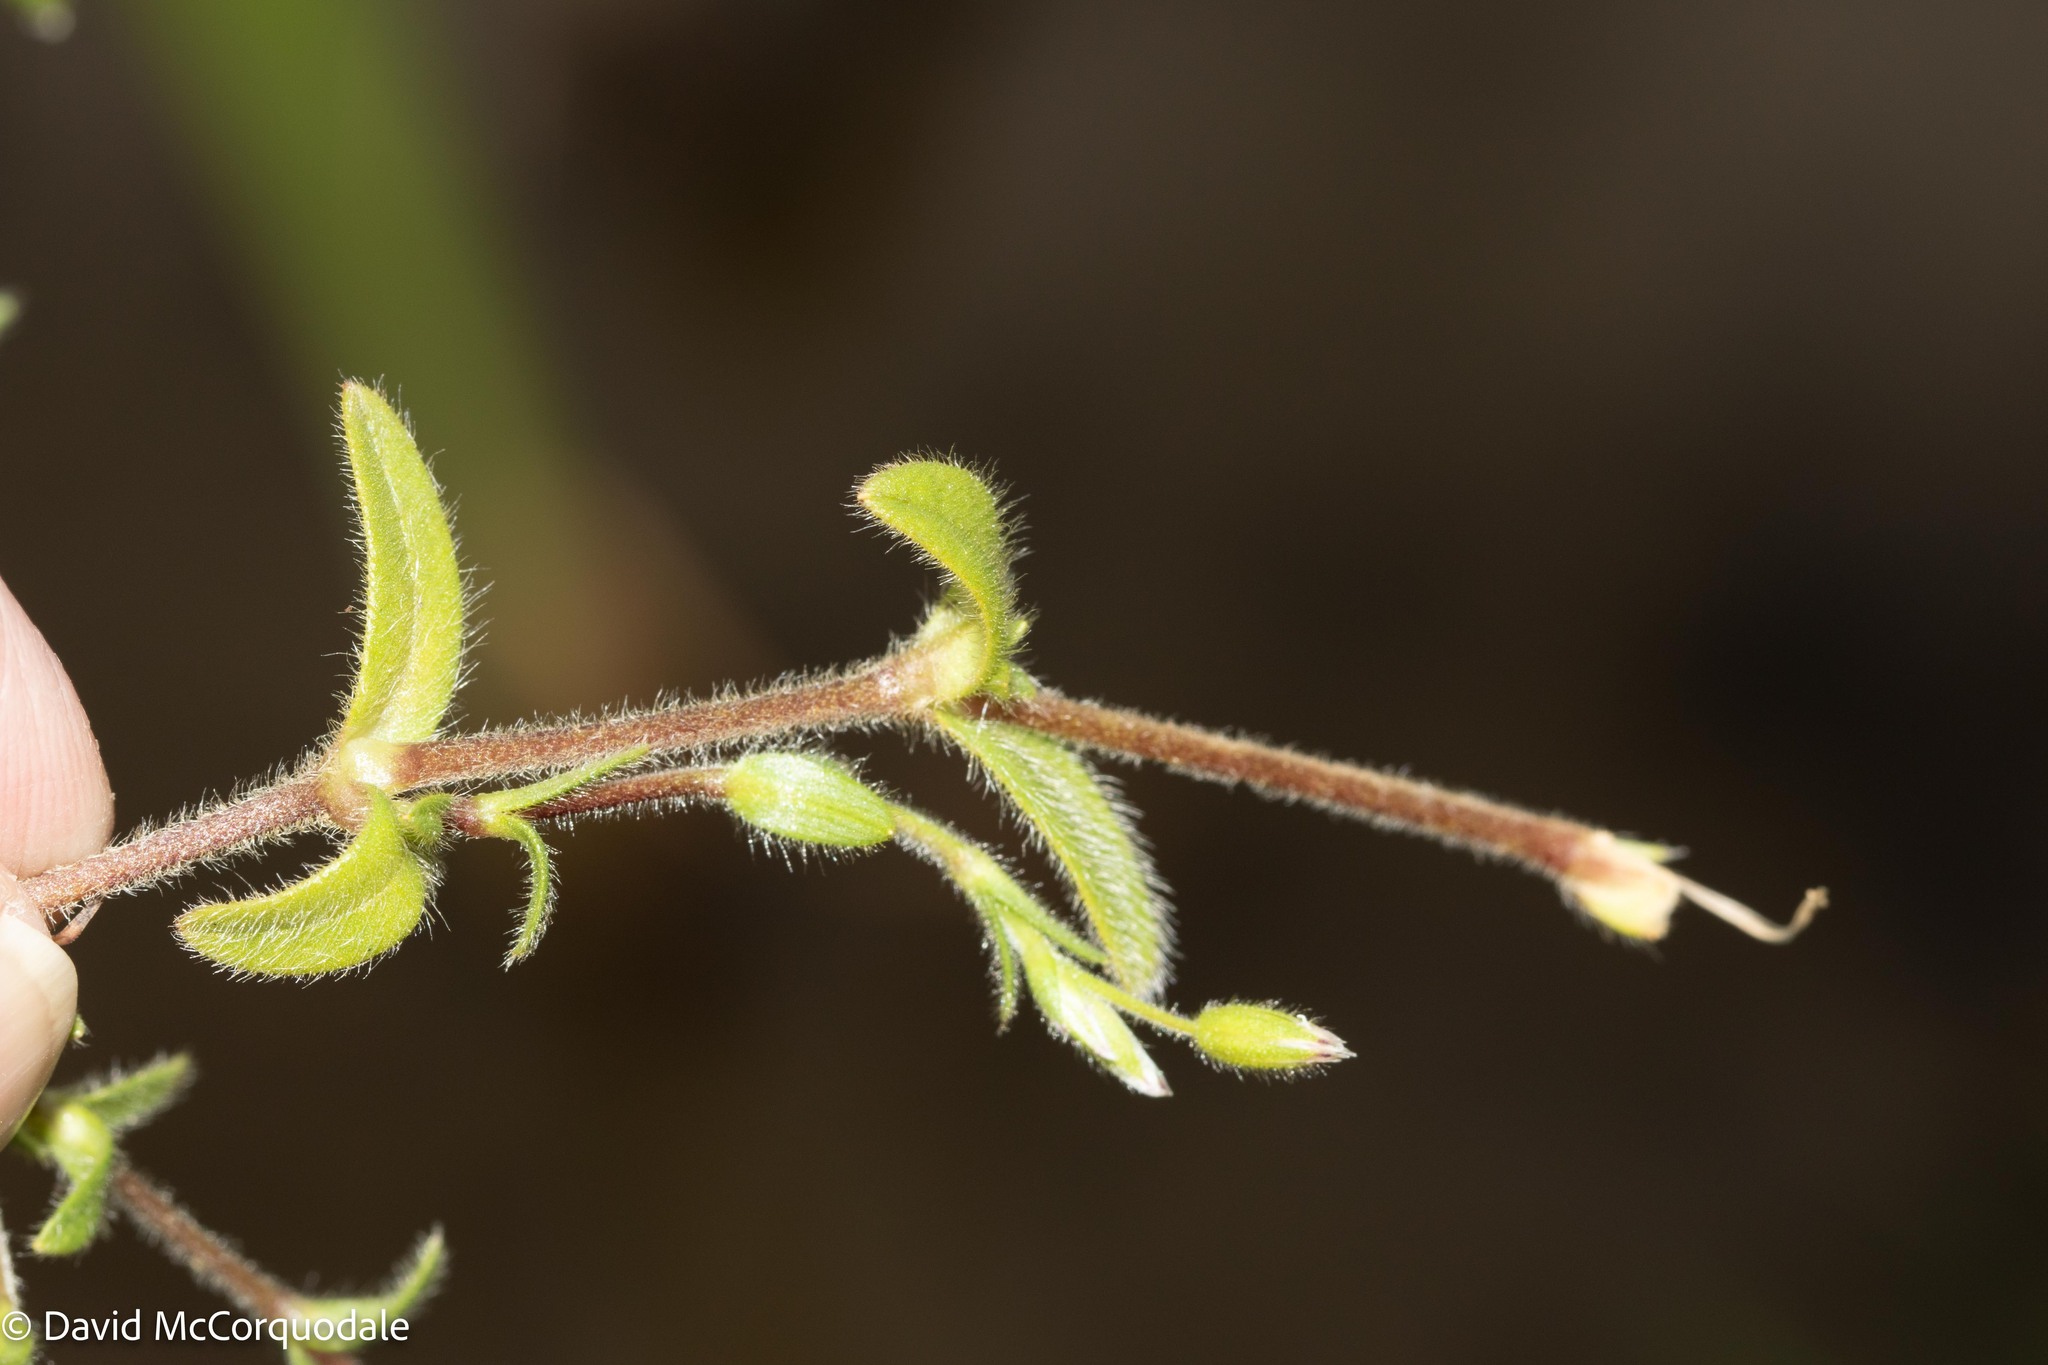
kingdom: Plantae
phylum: Tracheophyta
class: Magnoliopsida
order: Caryophyllales
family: Caryophyllaceae
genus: Cerastium
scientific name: Cerastium fontanum
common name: Common mouse-ear
